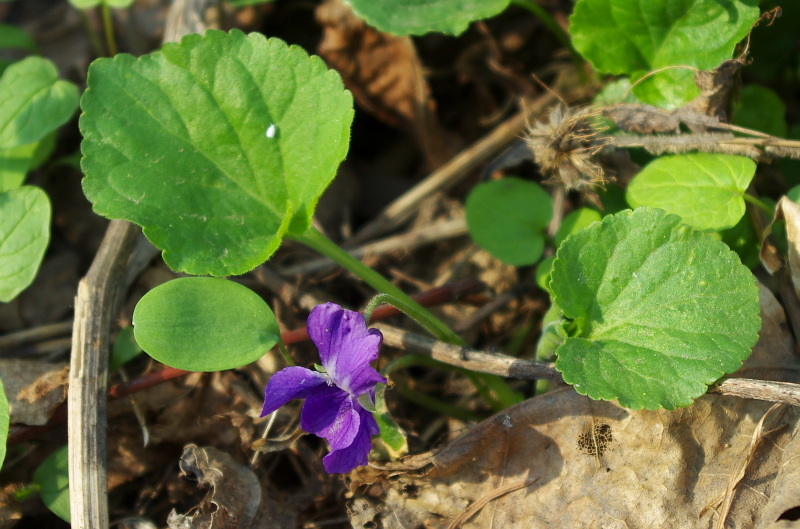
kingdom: Plantae
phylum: Tracheophyta
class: Magnoliopsida
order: Malpighiales
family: Violaceae
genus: Viola
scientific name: Viola odorata
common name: Sweet violet
